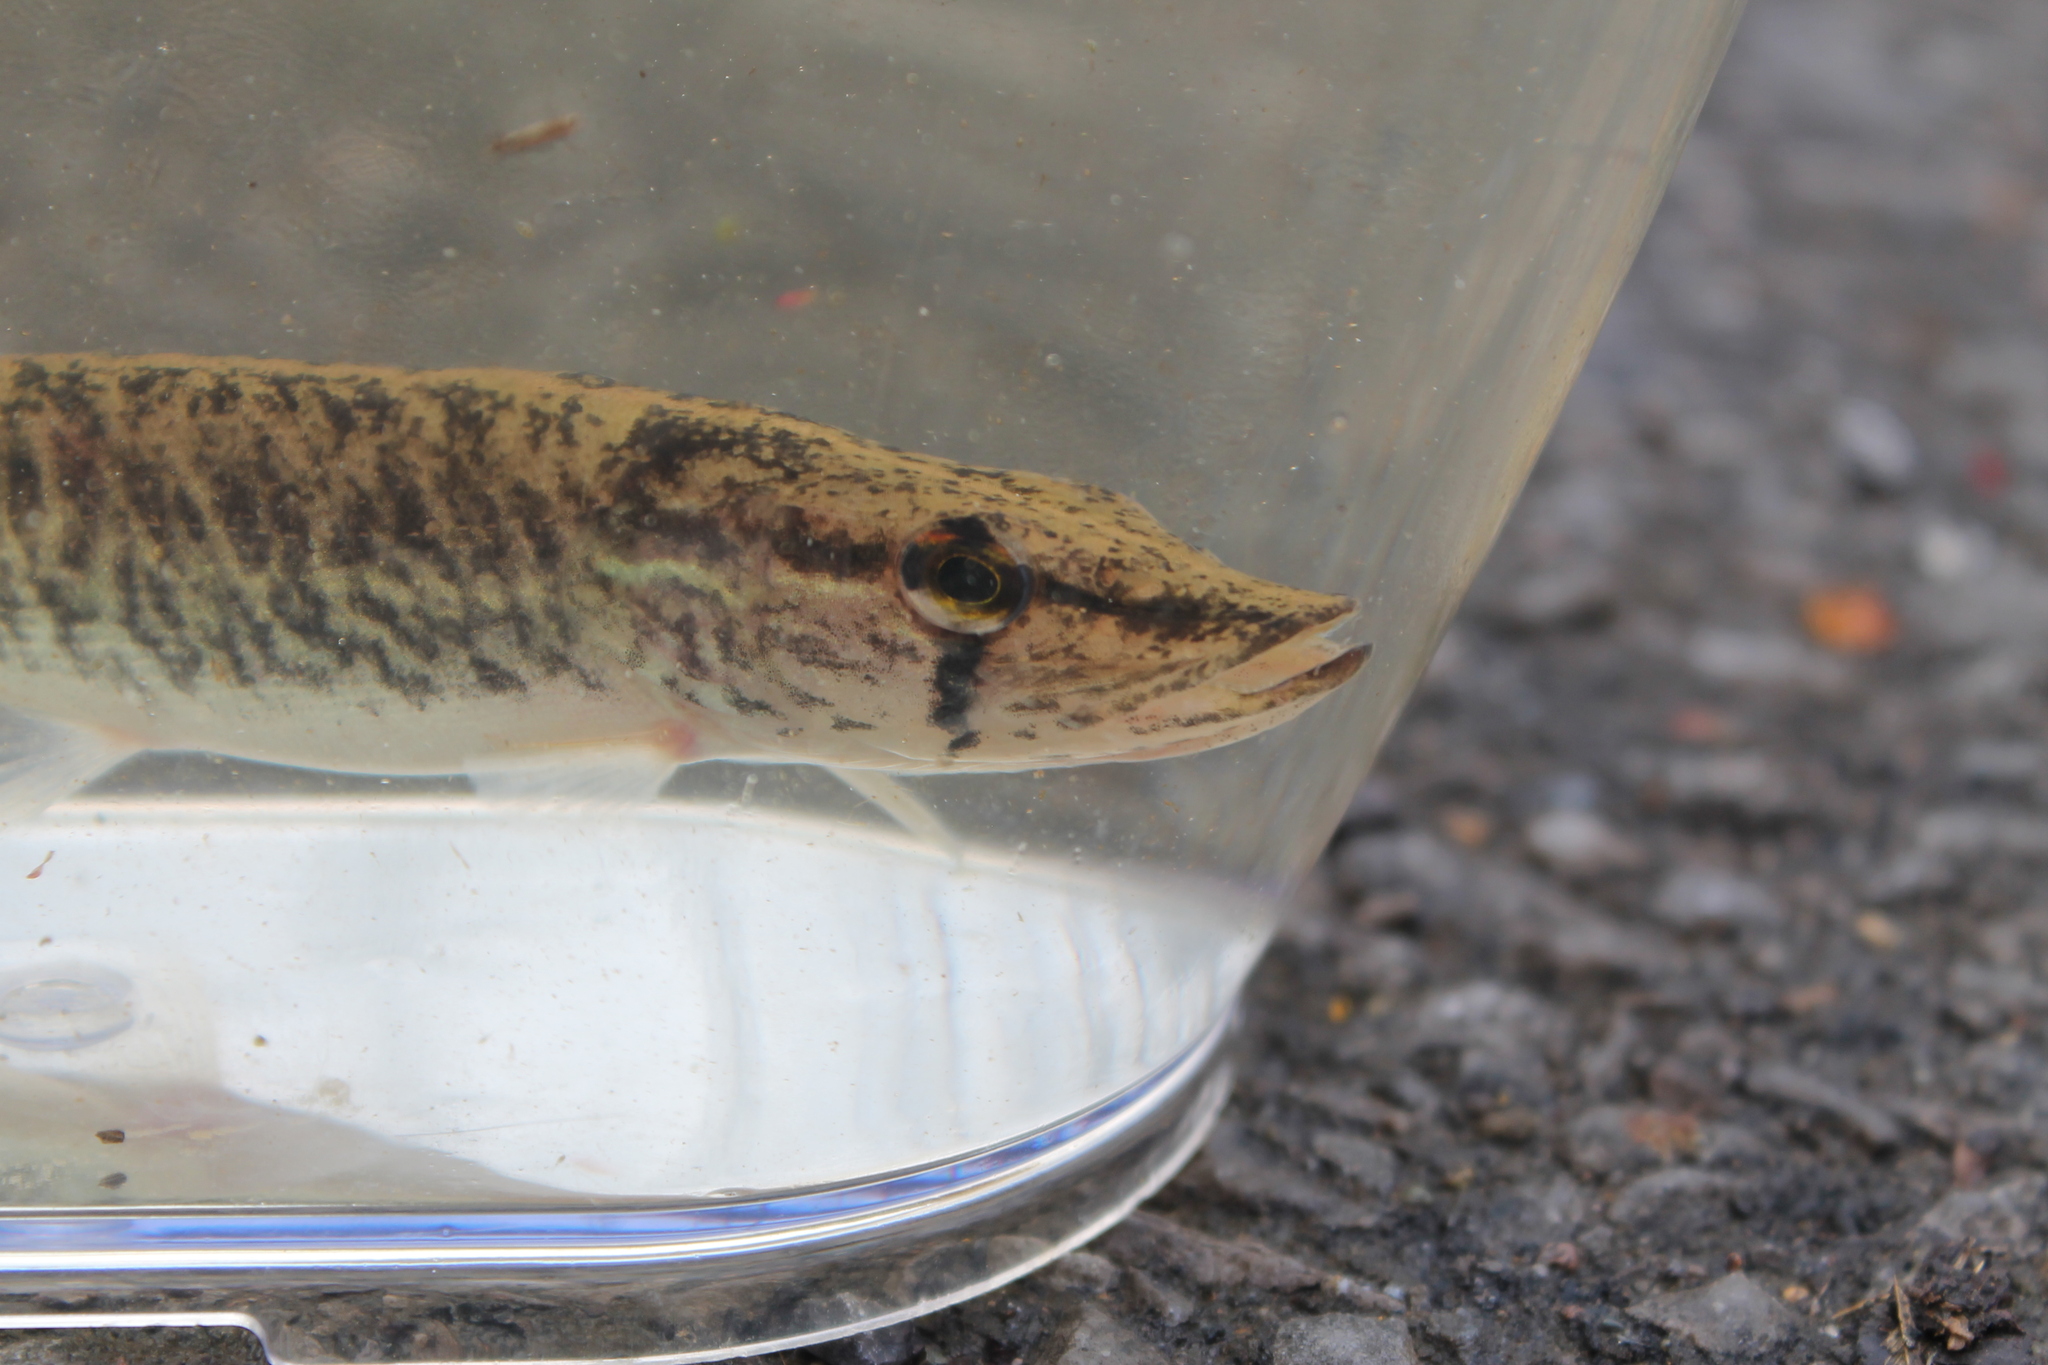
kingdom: Animalia
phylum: Chordata
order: Esociformes
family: Esocidae
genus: Esox
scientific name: Esox americanus
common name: Redfin pickerel
